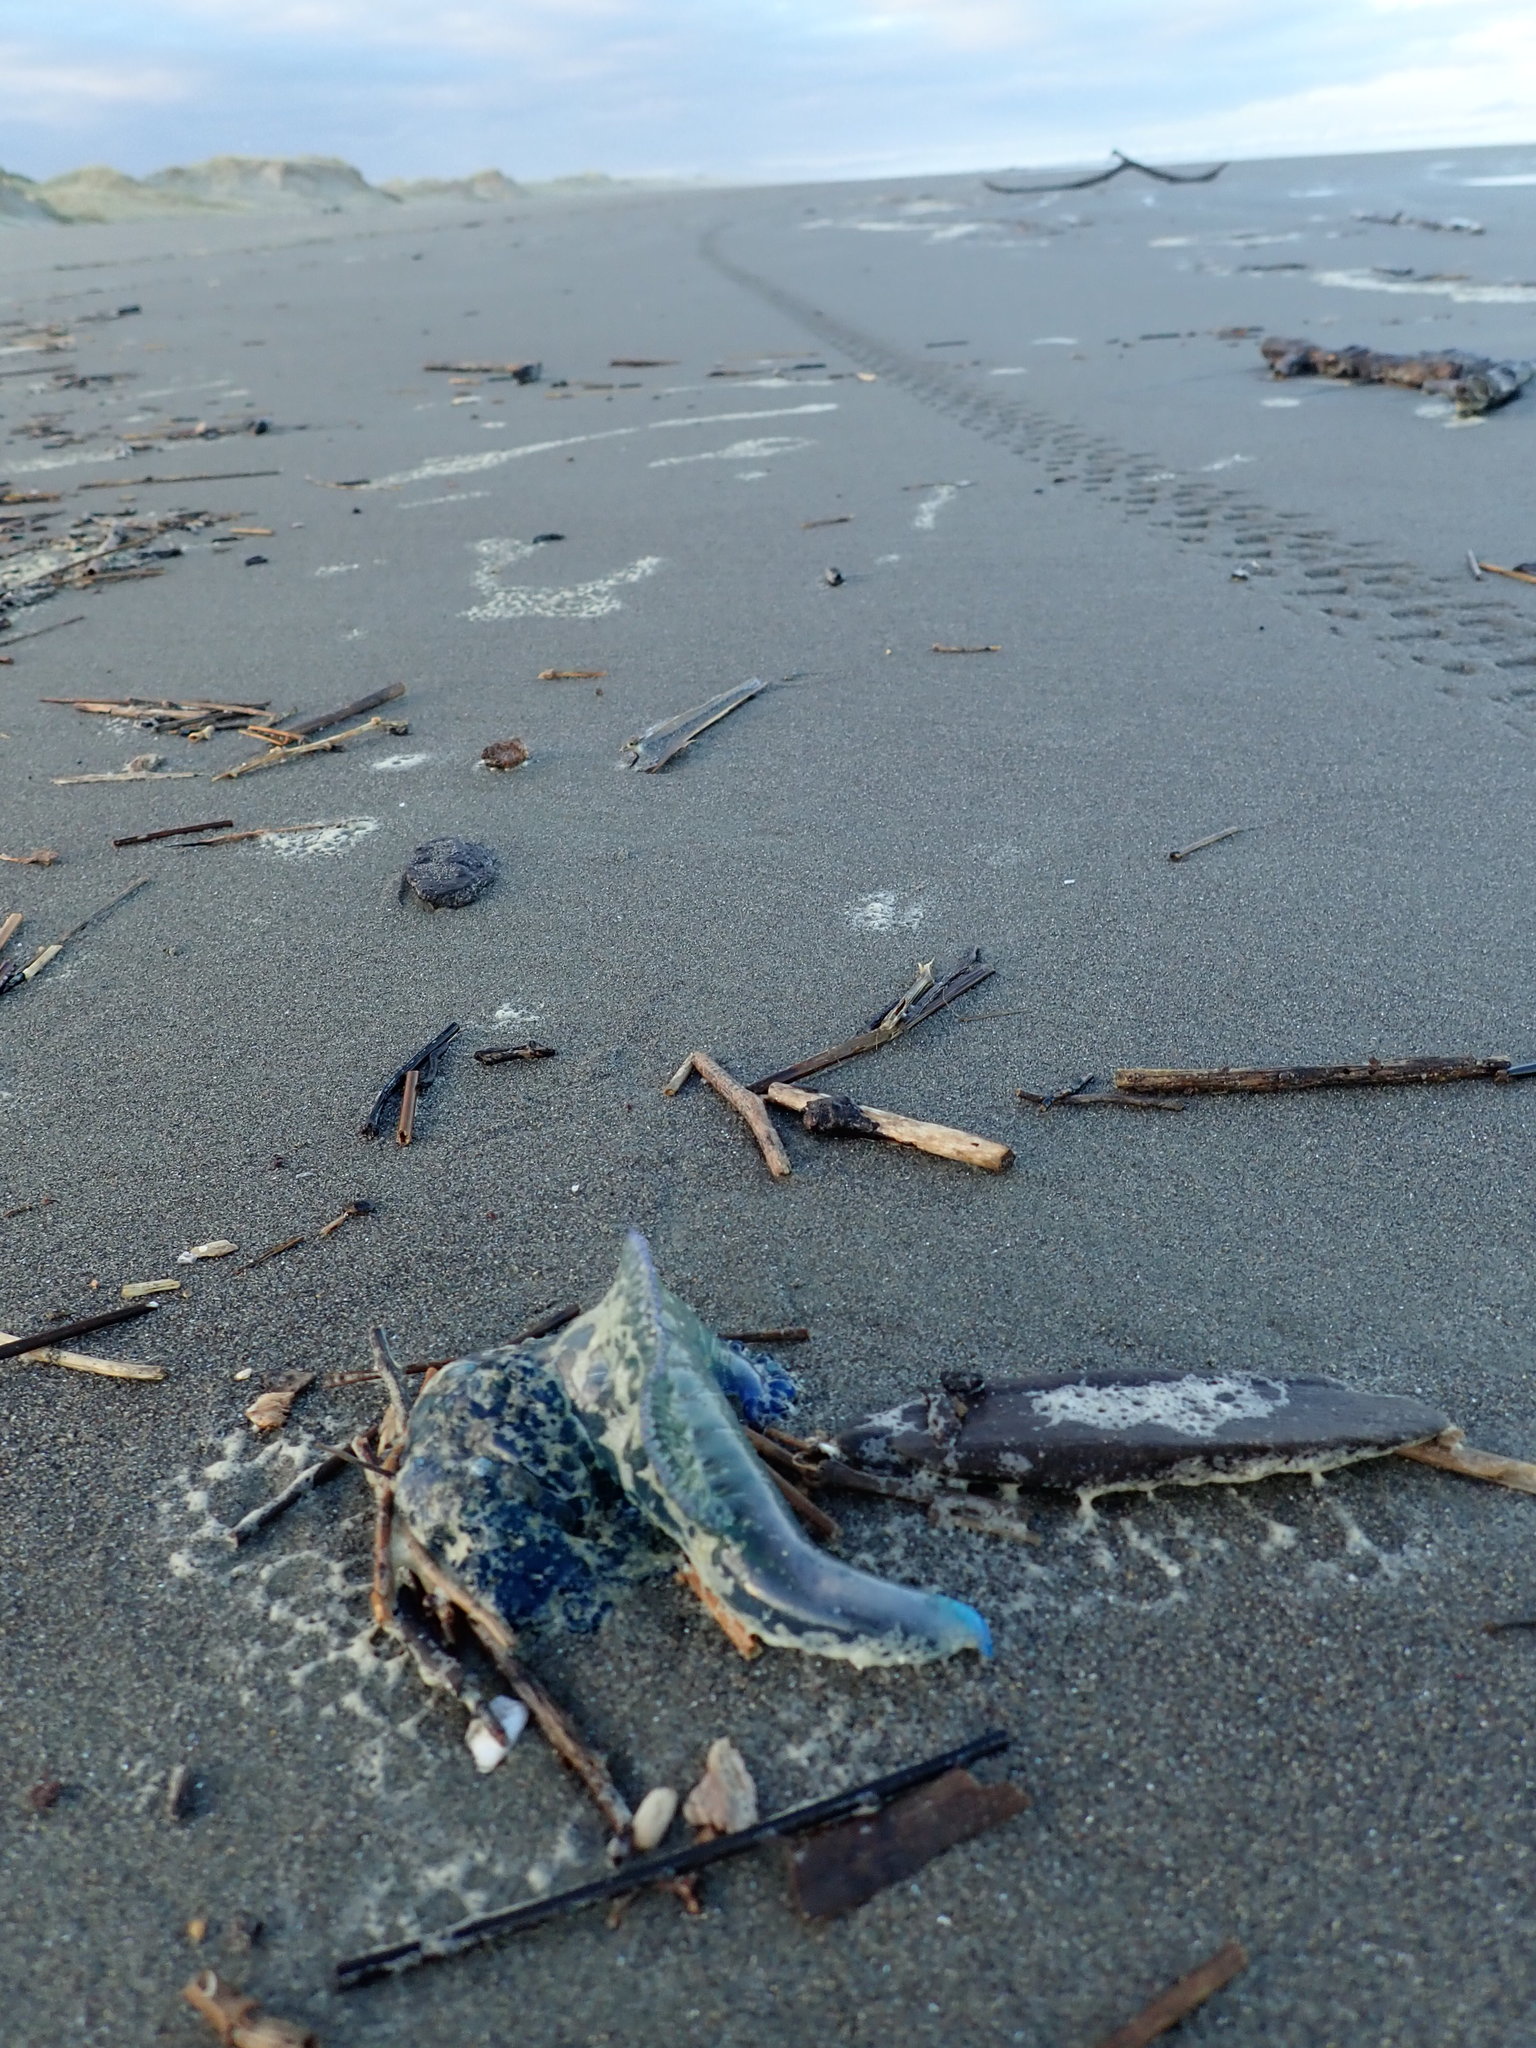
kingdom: Animalia
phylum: Cnidaria
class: Hydrozoa
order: Siphonophorae
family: Physaliidae
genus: Physalia
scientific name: Physalia physalis
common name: Portuguese man-of-war
